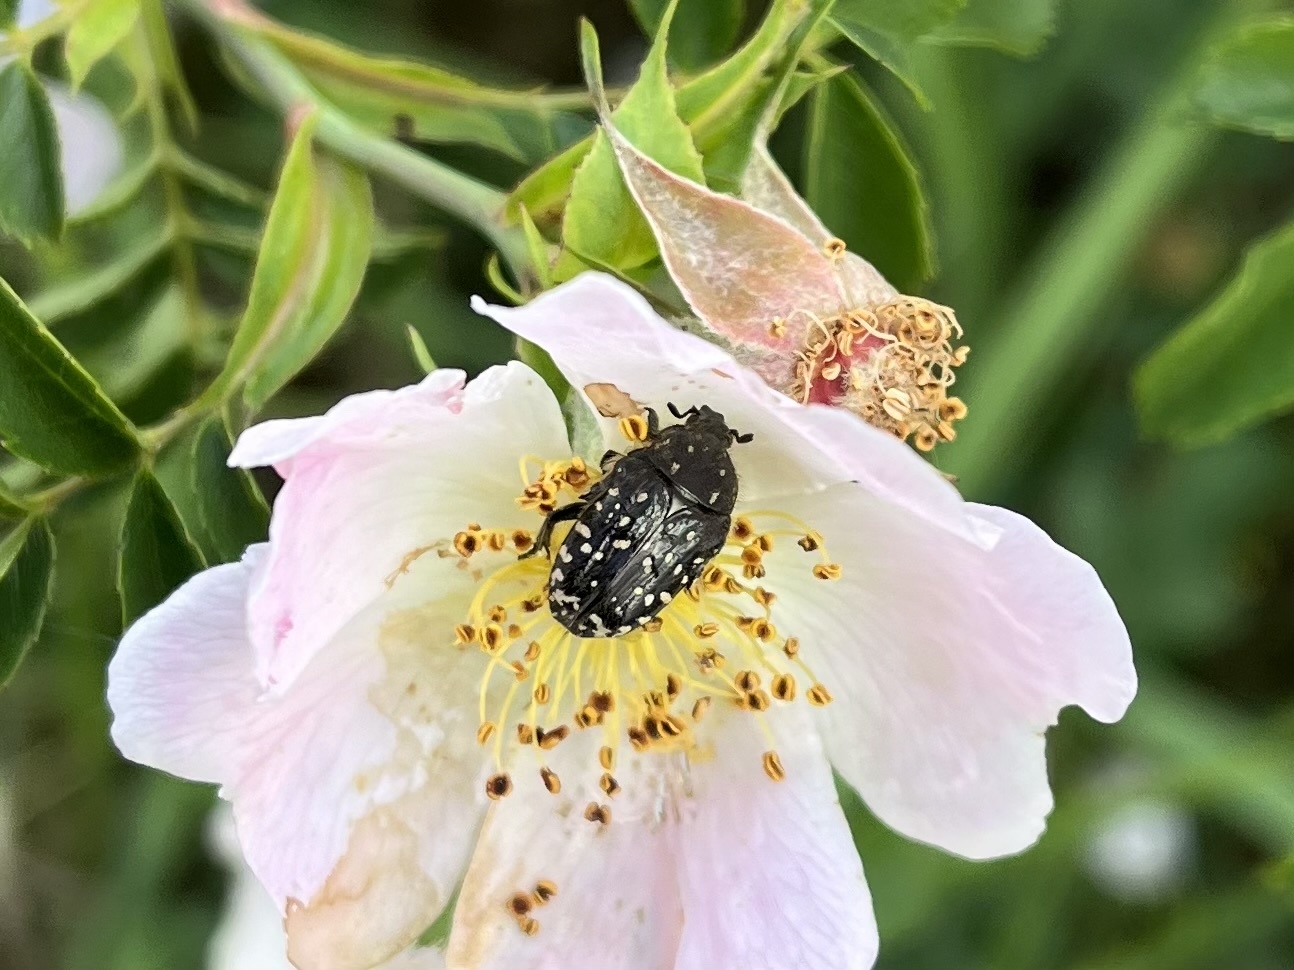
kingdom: Animalia
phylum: Arthropoda
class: Insecta
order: Coleoptera
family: Scarabaeidae
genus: Oxythyrea
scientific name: Oxythyrea funesta
